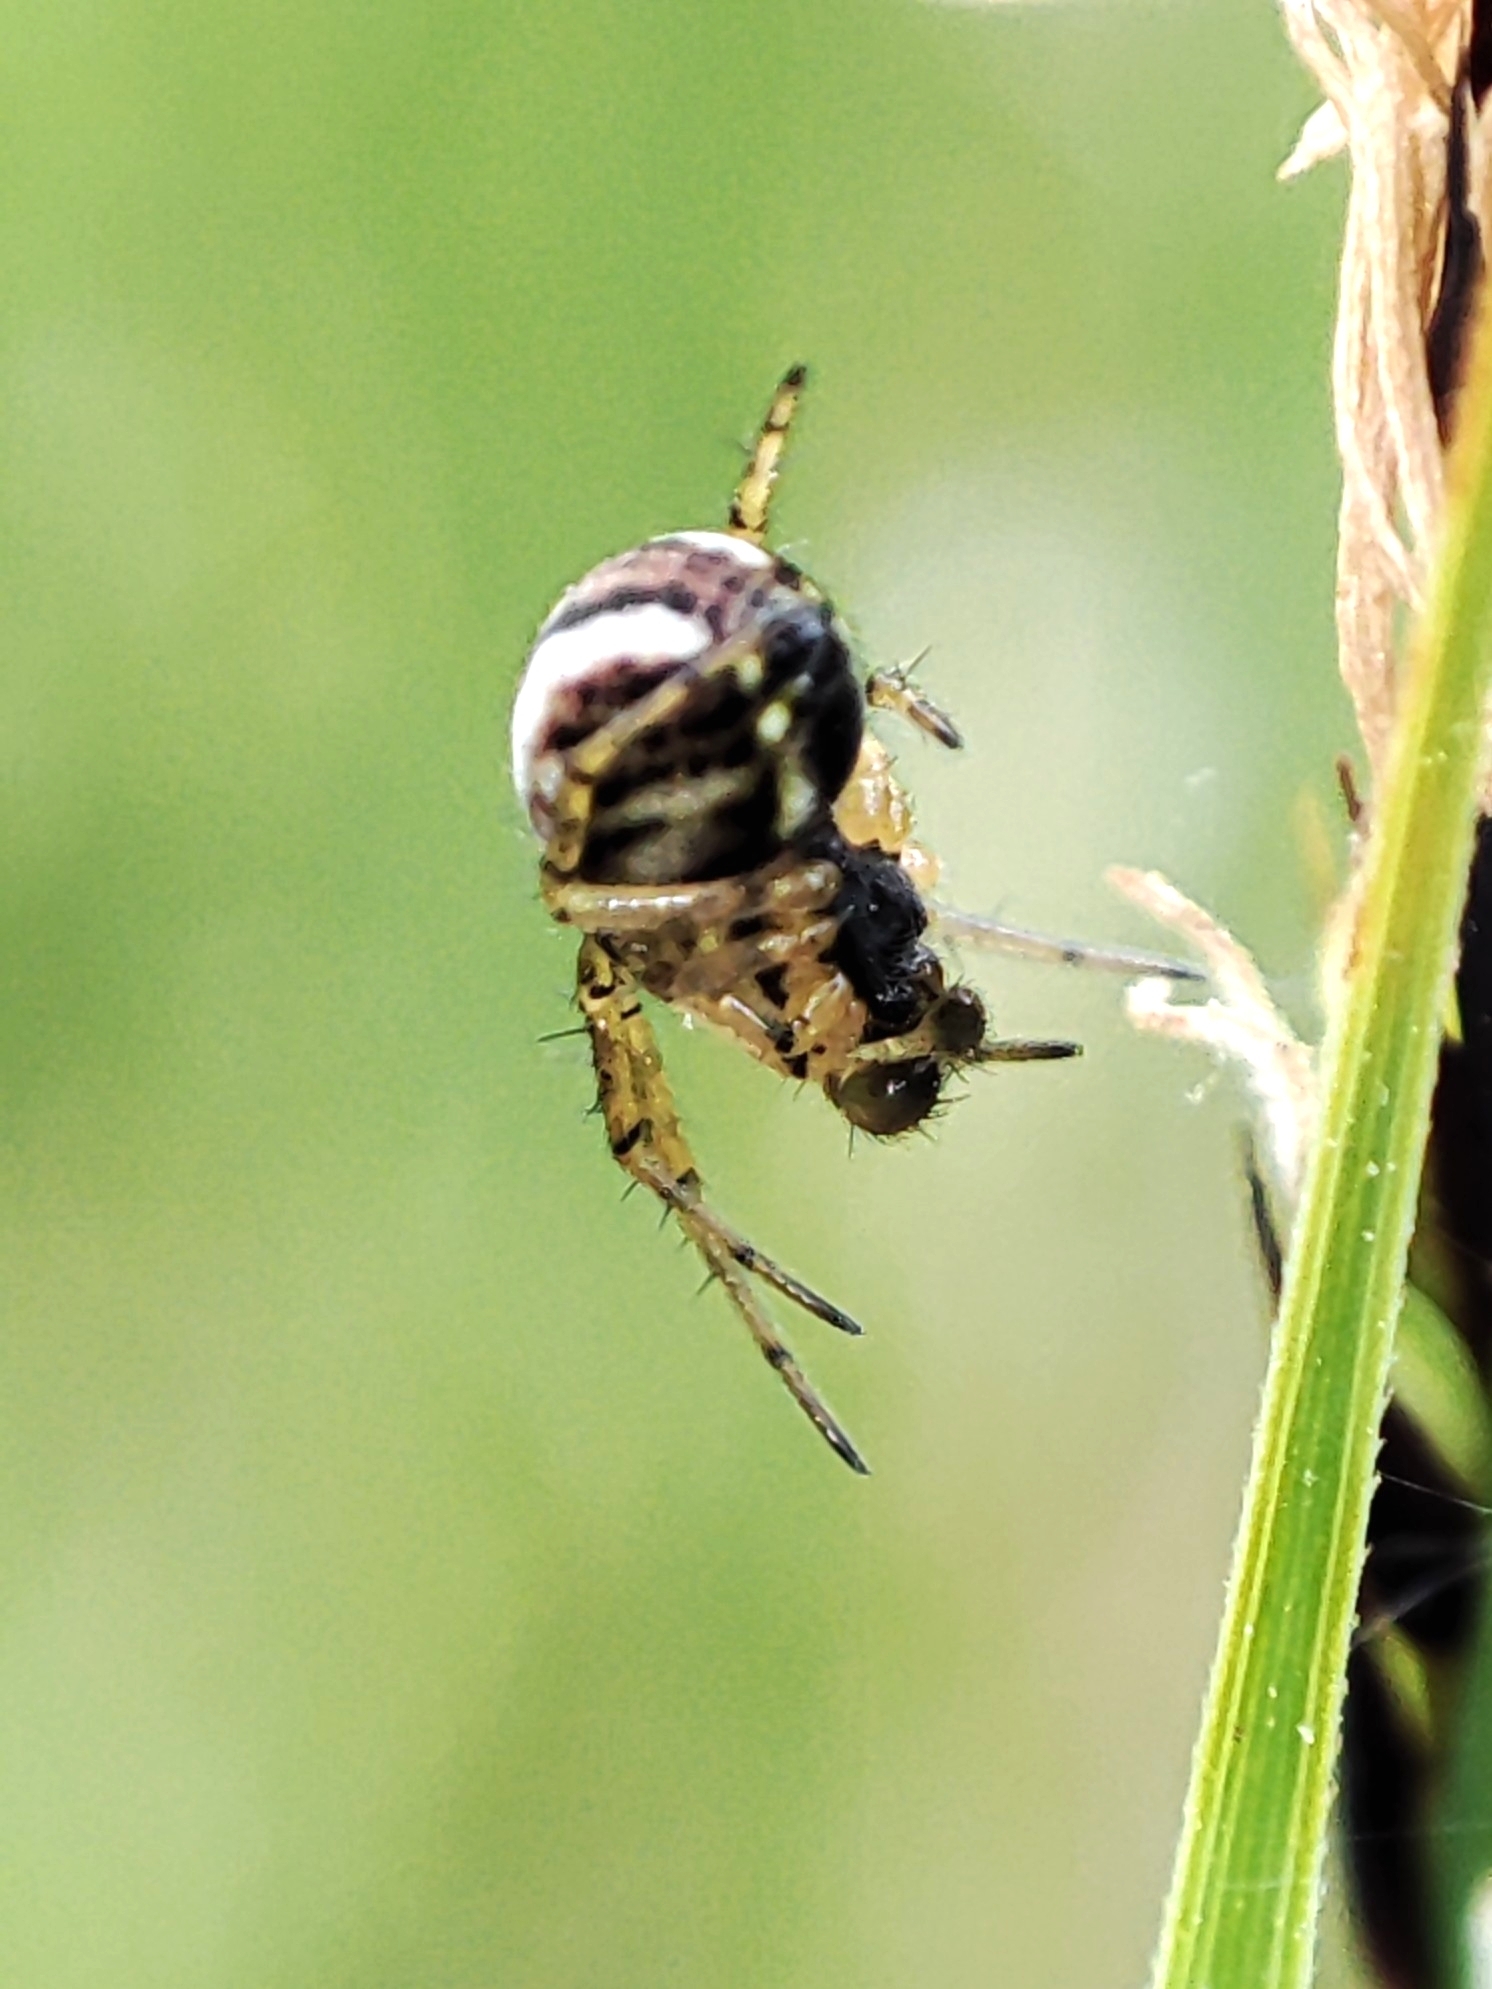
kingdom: Animalia
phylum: Arthropoda
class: Arachnida
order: Araneae
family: Araneidae
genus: Mangora
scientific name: Mangora acalypha
